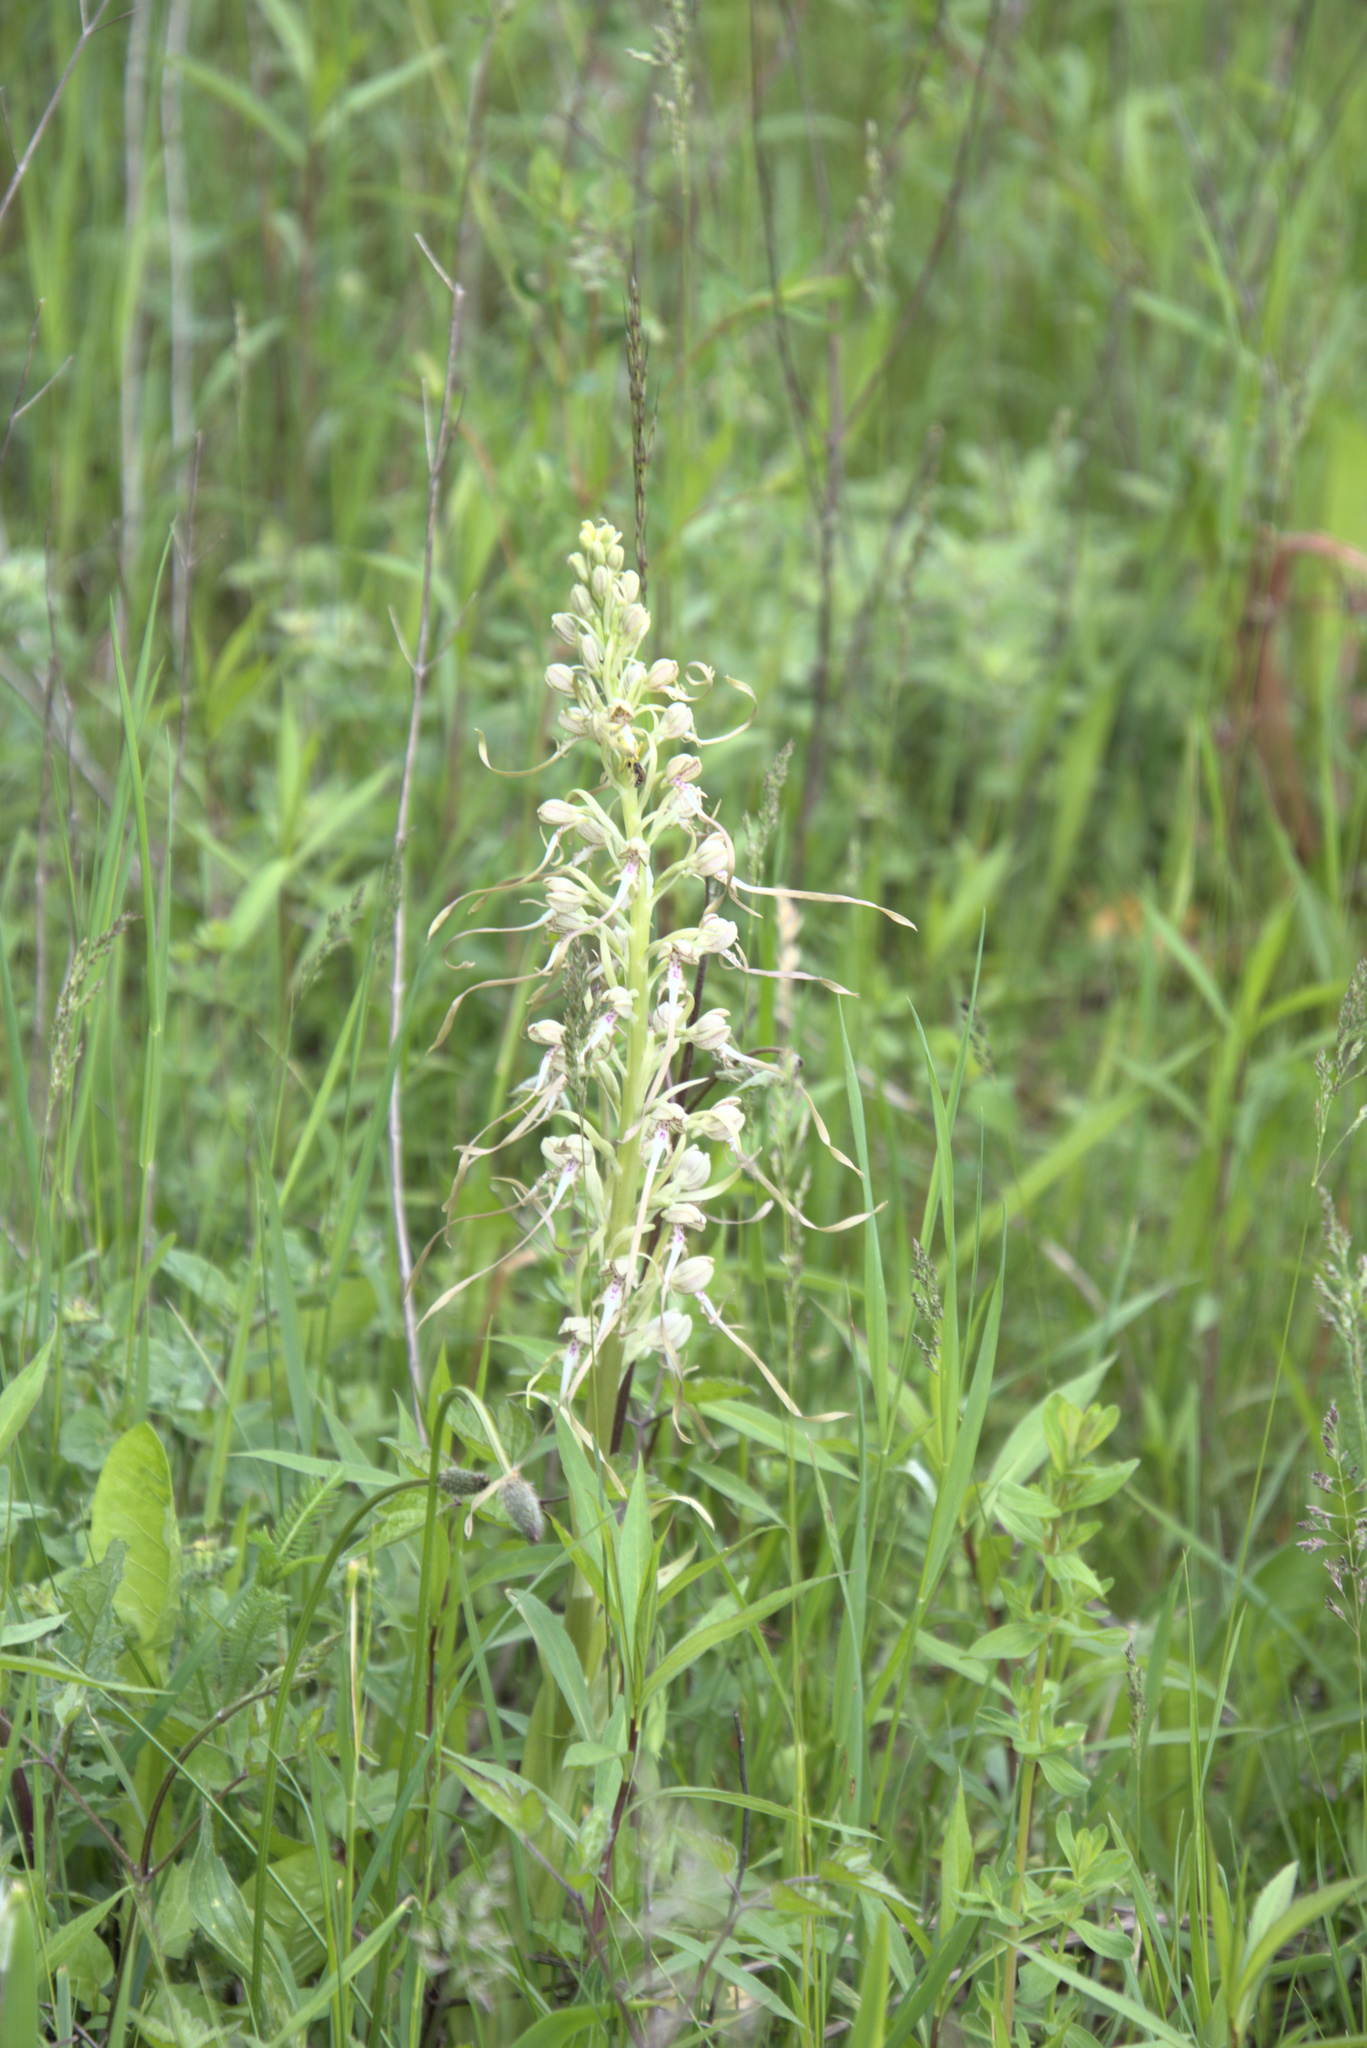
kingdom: Plantae
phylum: Tracheophyta
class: Liliopsida
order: Asparagales
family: Orchidaceae
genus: Himantoglossum
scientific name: Himantoglossum hircinum
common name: Lizard orchid
